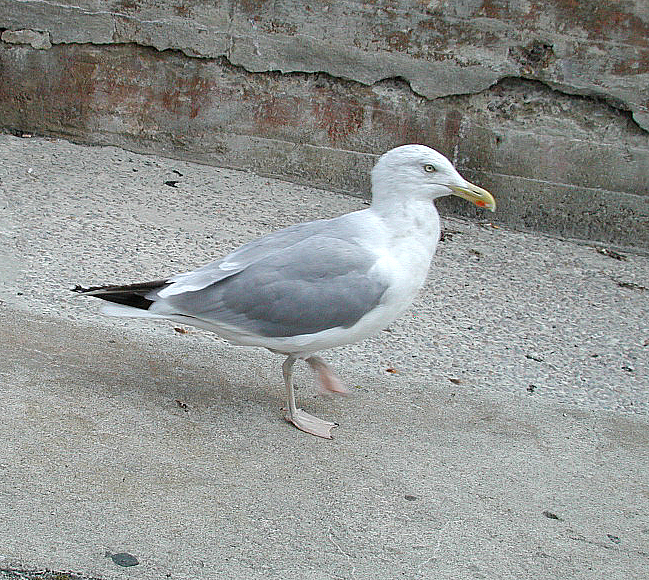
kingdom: Animalia
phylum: Chordata
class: Aves
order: Charadriiformes
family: Laridae
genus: Larus
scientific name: Larus argentatus
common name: Herring gull
